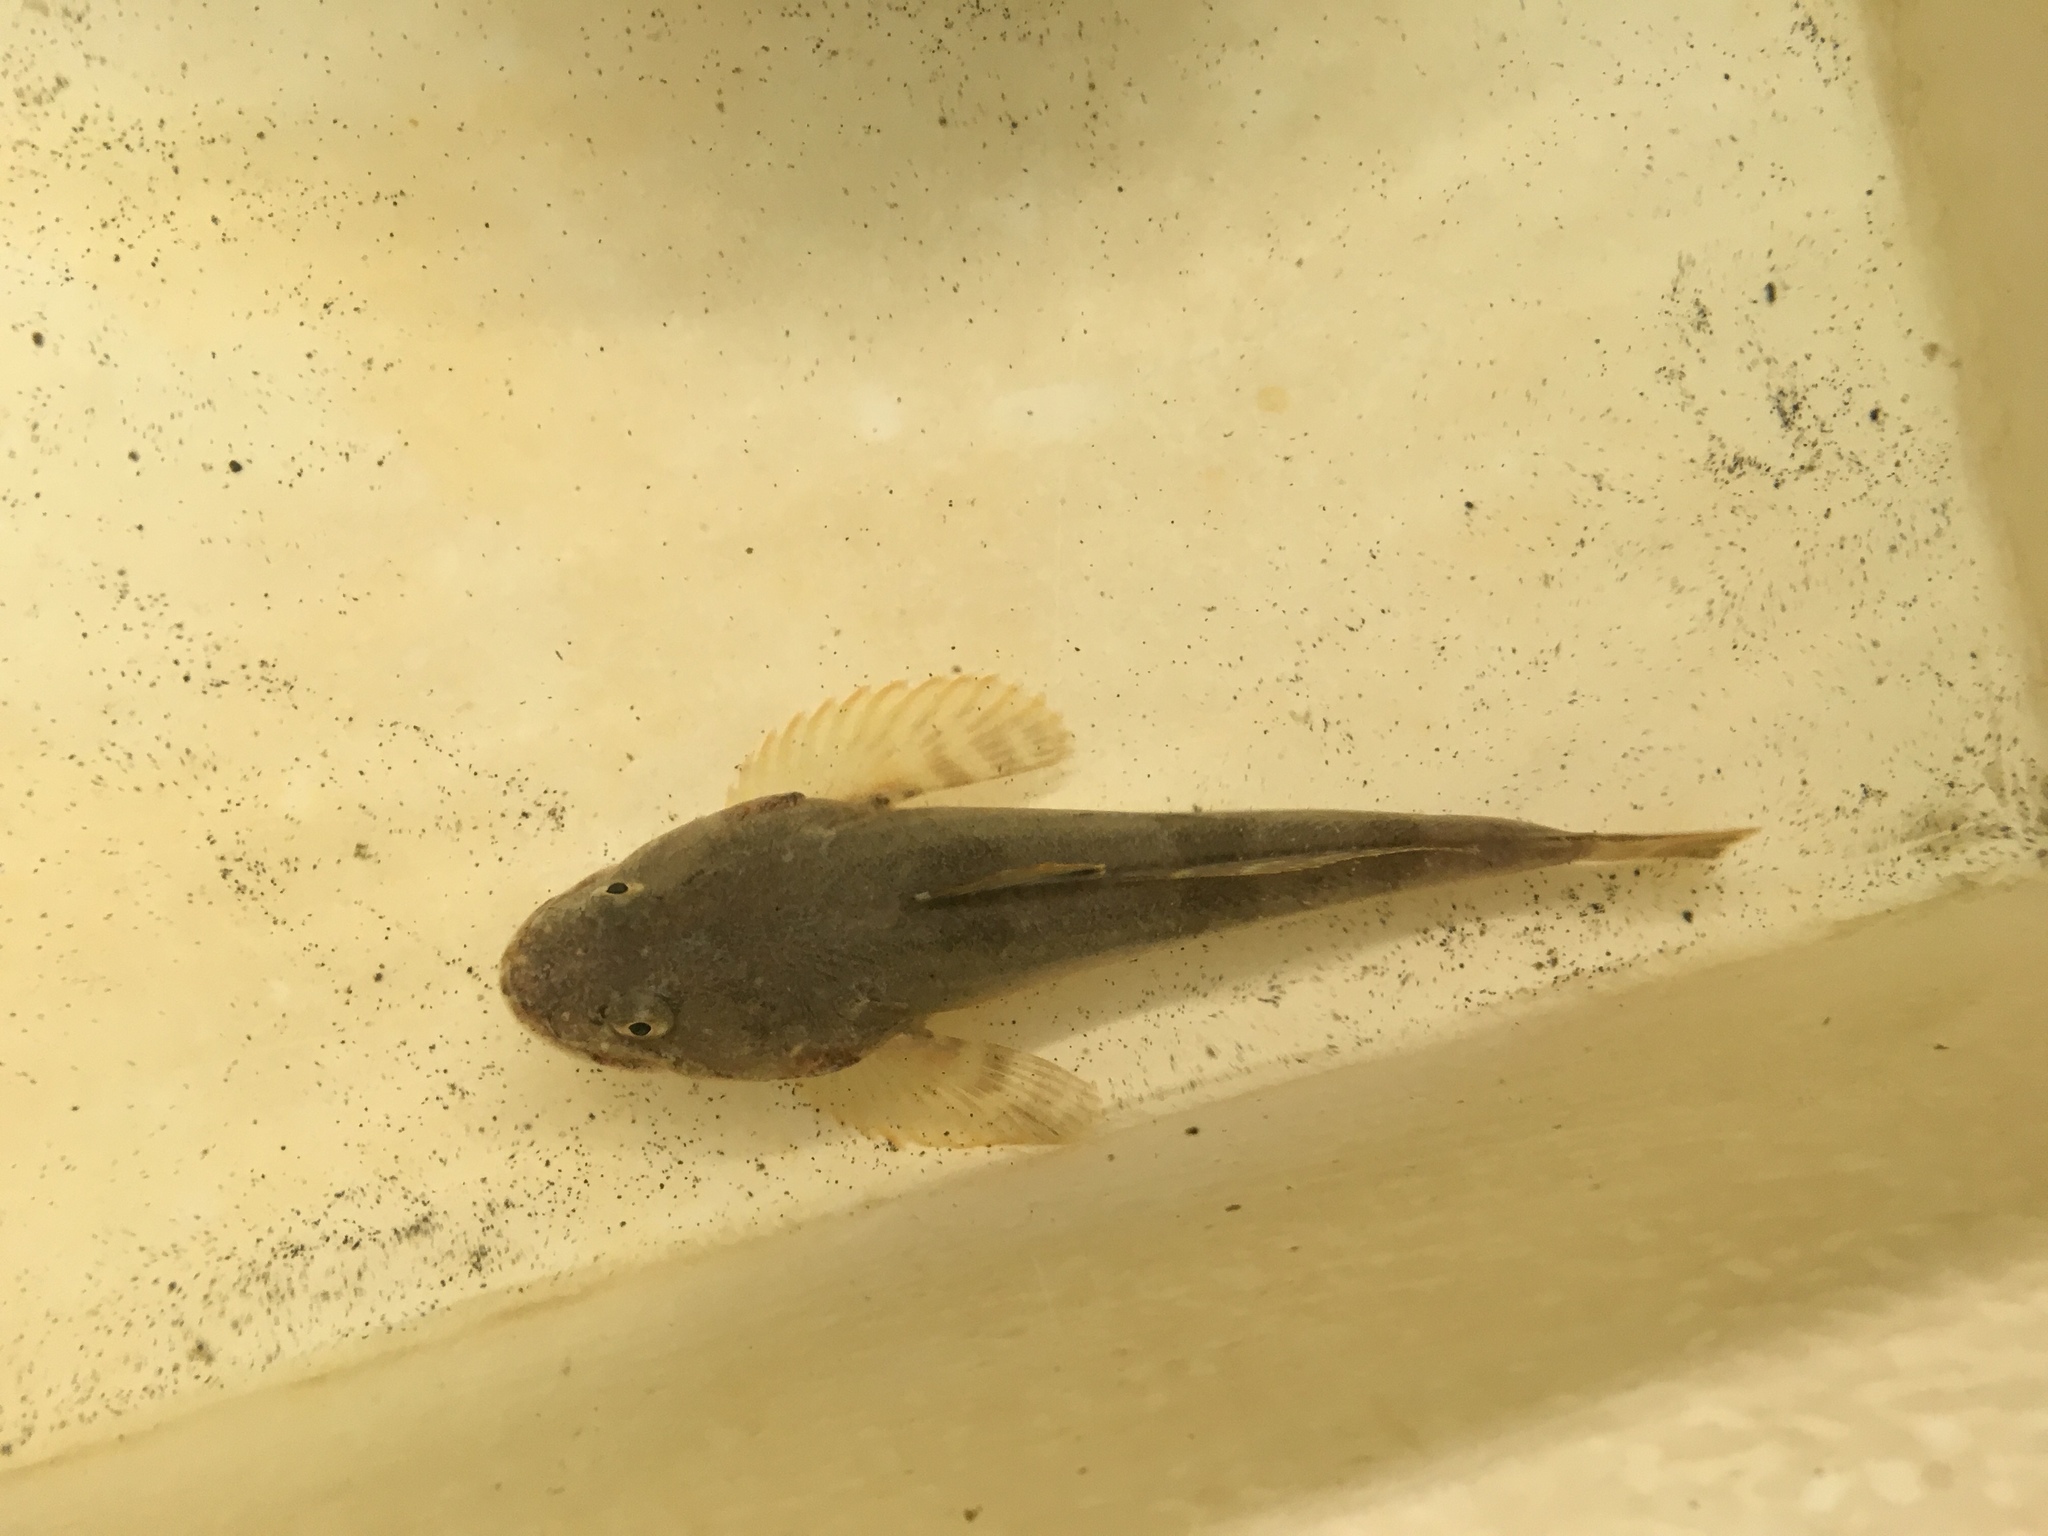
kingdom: Animalia
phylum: Chordata
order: Scorpaeniformes
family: Cottidae
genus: Leptocottus
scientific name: Leptocottus armatus
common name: Pacific staghorn sculpin
